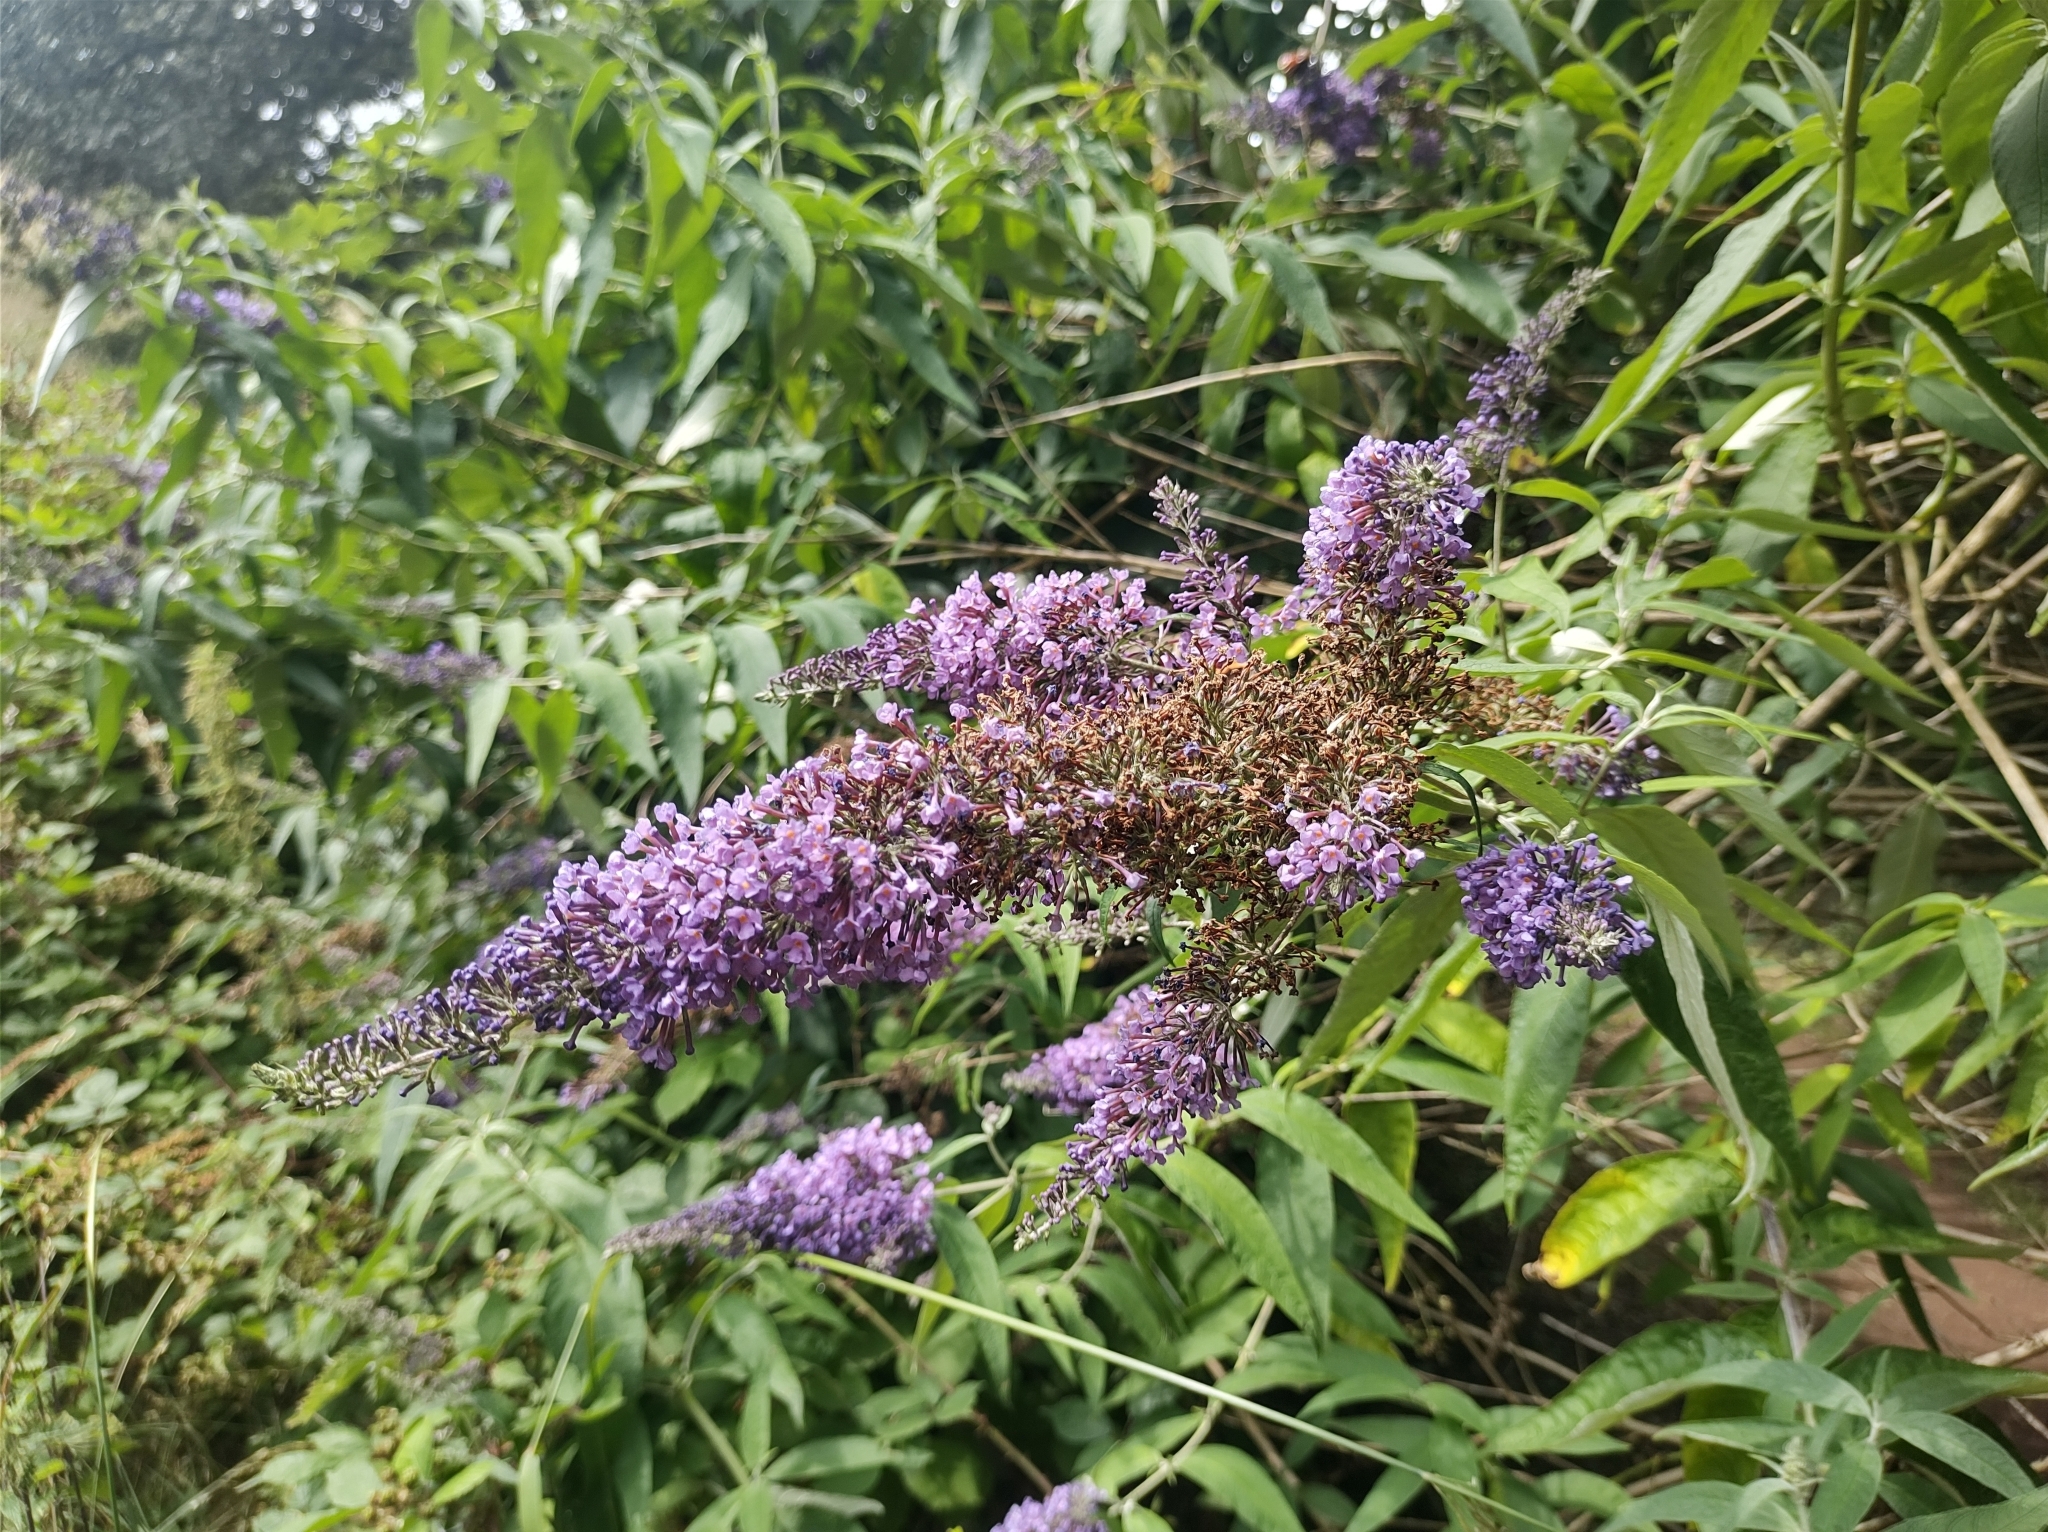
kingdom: Plantae
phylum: Tracheophyta
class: Magnoliopsida
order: Lamiales
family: Scrophulariaceae
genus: Buddleja
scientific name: Buddleja davidii
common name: Butterfly-bush
